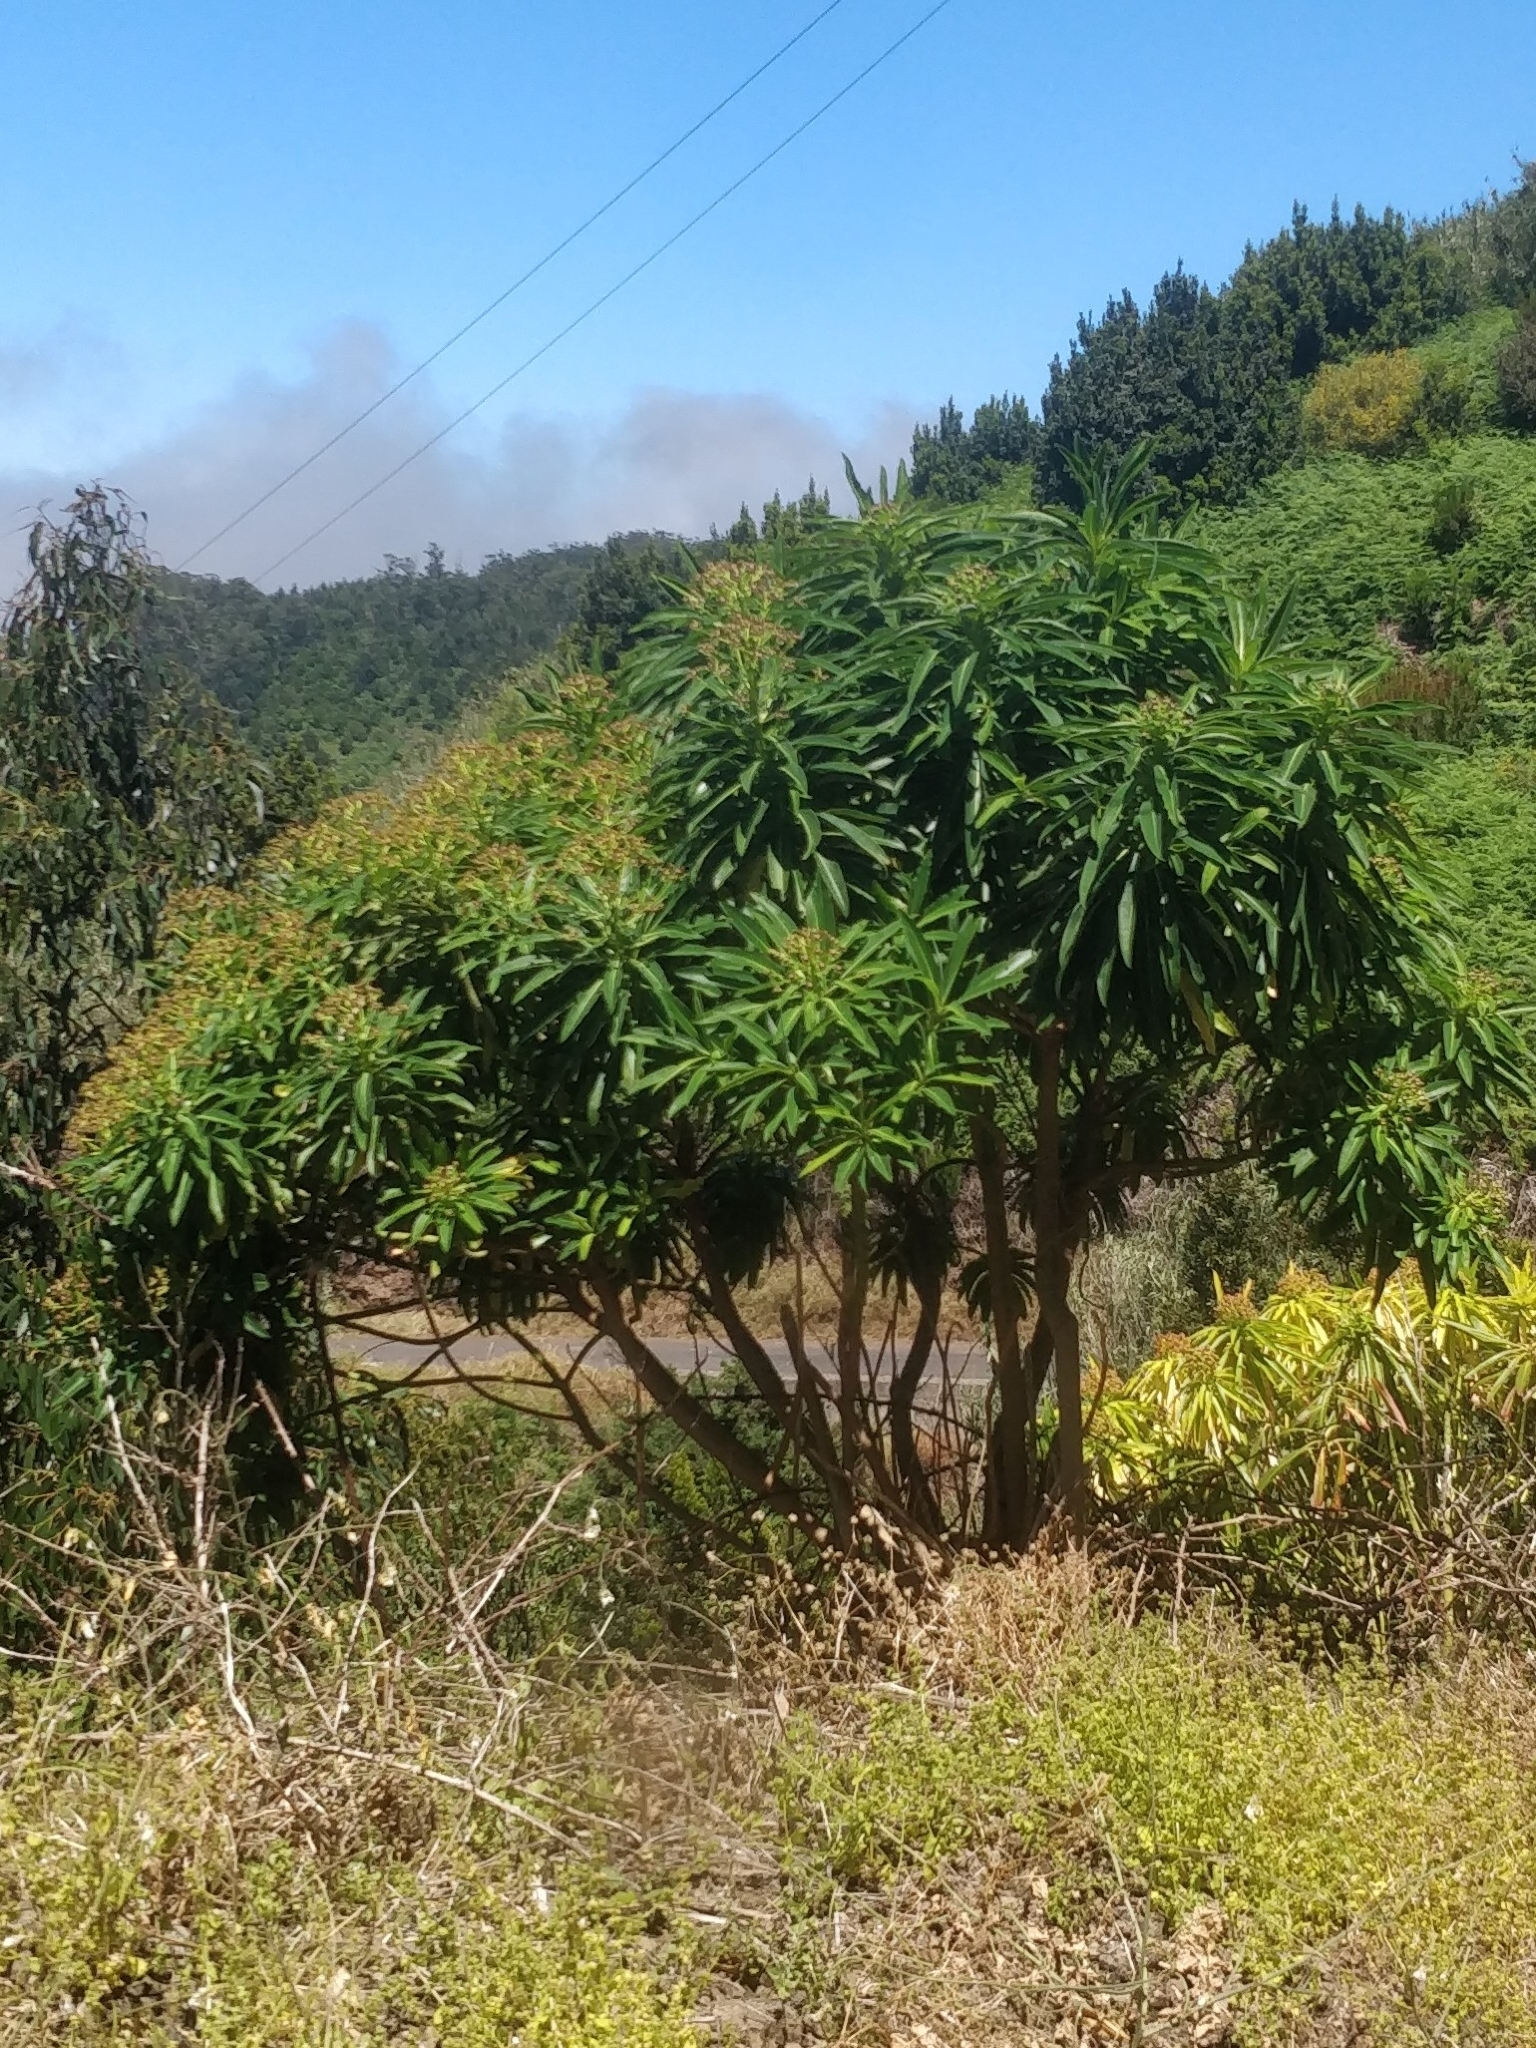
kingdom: Plantae
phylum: Tracheophyta
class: Magnoliopsida
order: Malpighiales
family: Euphorbiaceae
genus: Euphorbia
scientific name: Euphorbia mellifera
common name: Canary spurge
